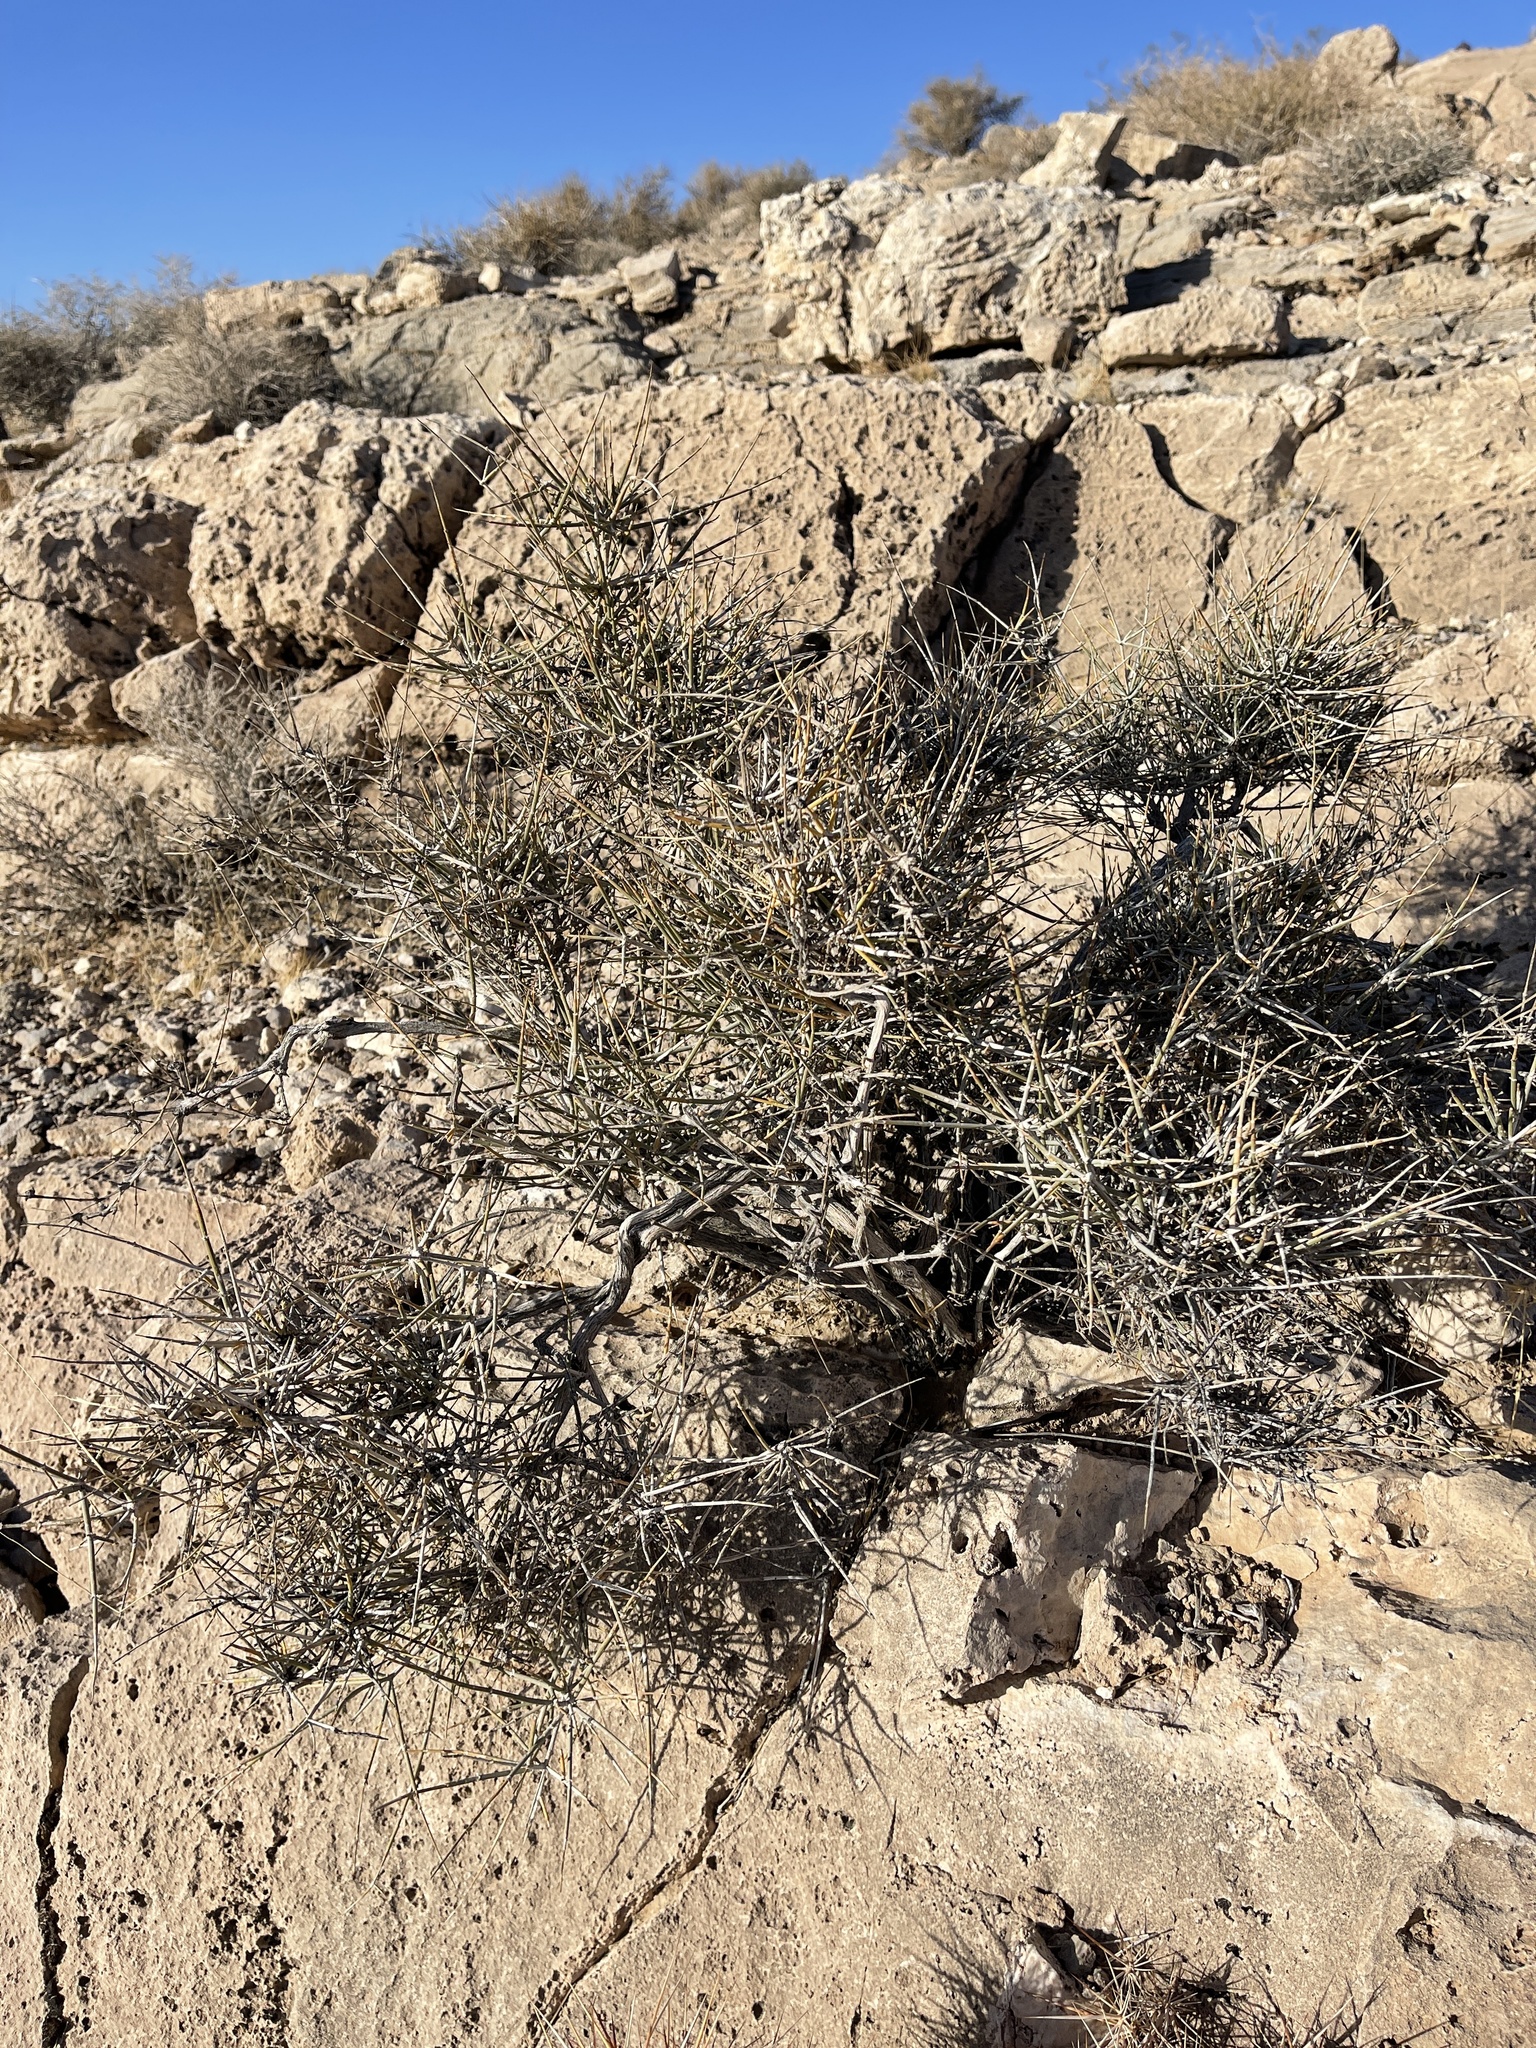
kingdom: Plantae
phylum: Tracheophyta
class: Gnetopsida
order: Ephedrales
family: Ephedraceae
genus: Ephedra
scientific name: Ephedra nevadensis
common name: Gray ephedra
